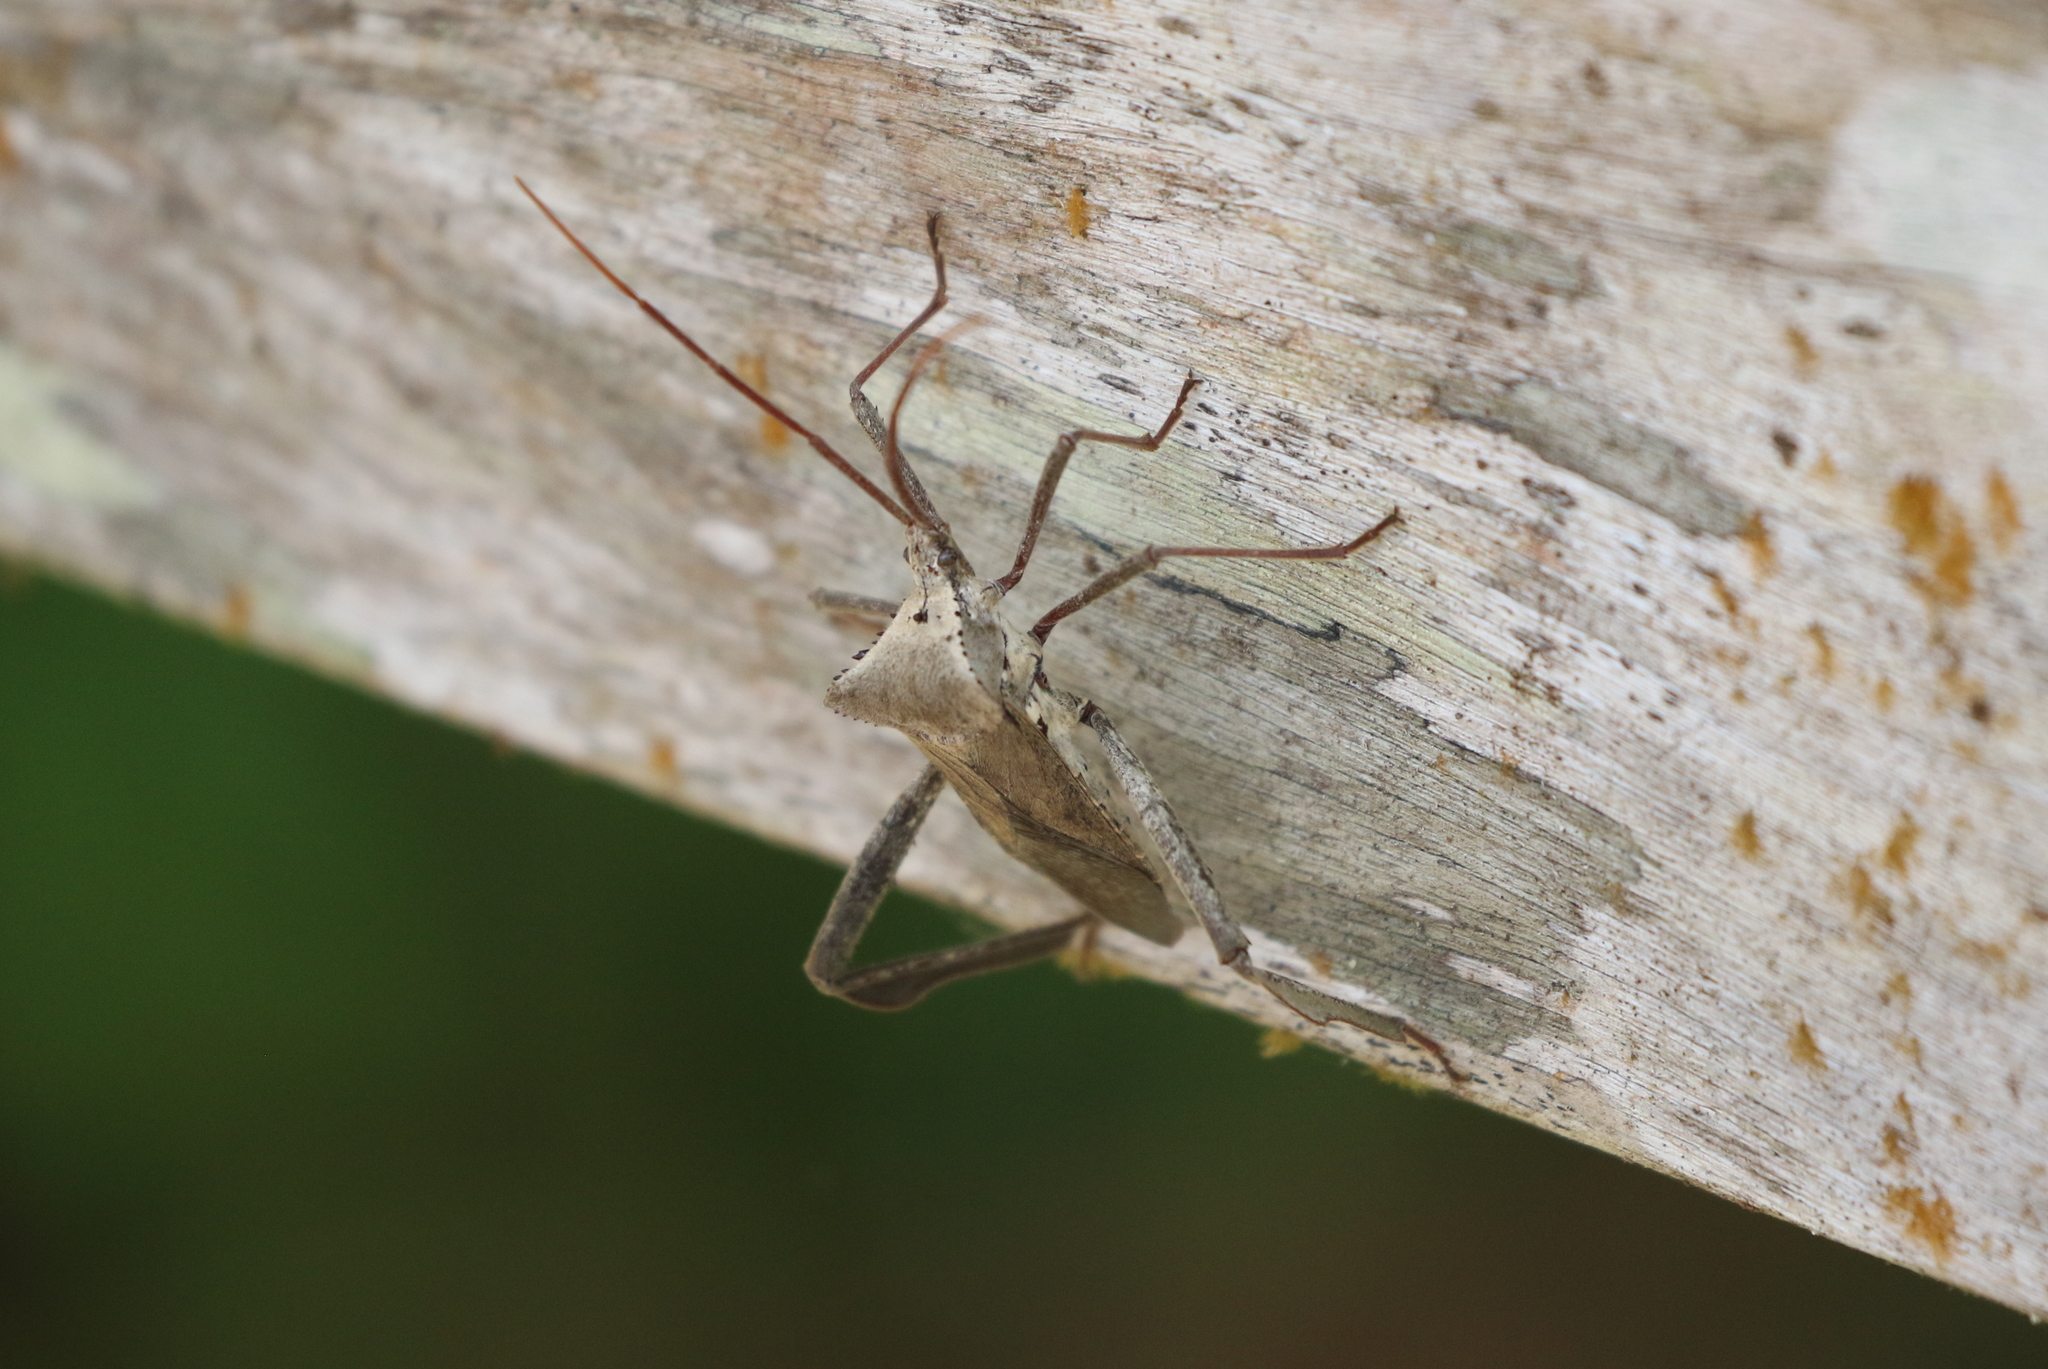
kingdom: Animalia
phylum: Arthropoda
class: Insecta
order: Hemiptera
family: Coreidae
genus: Acanthocephala
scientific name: Acanthocephala declivis
